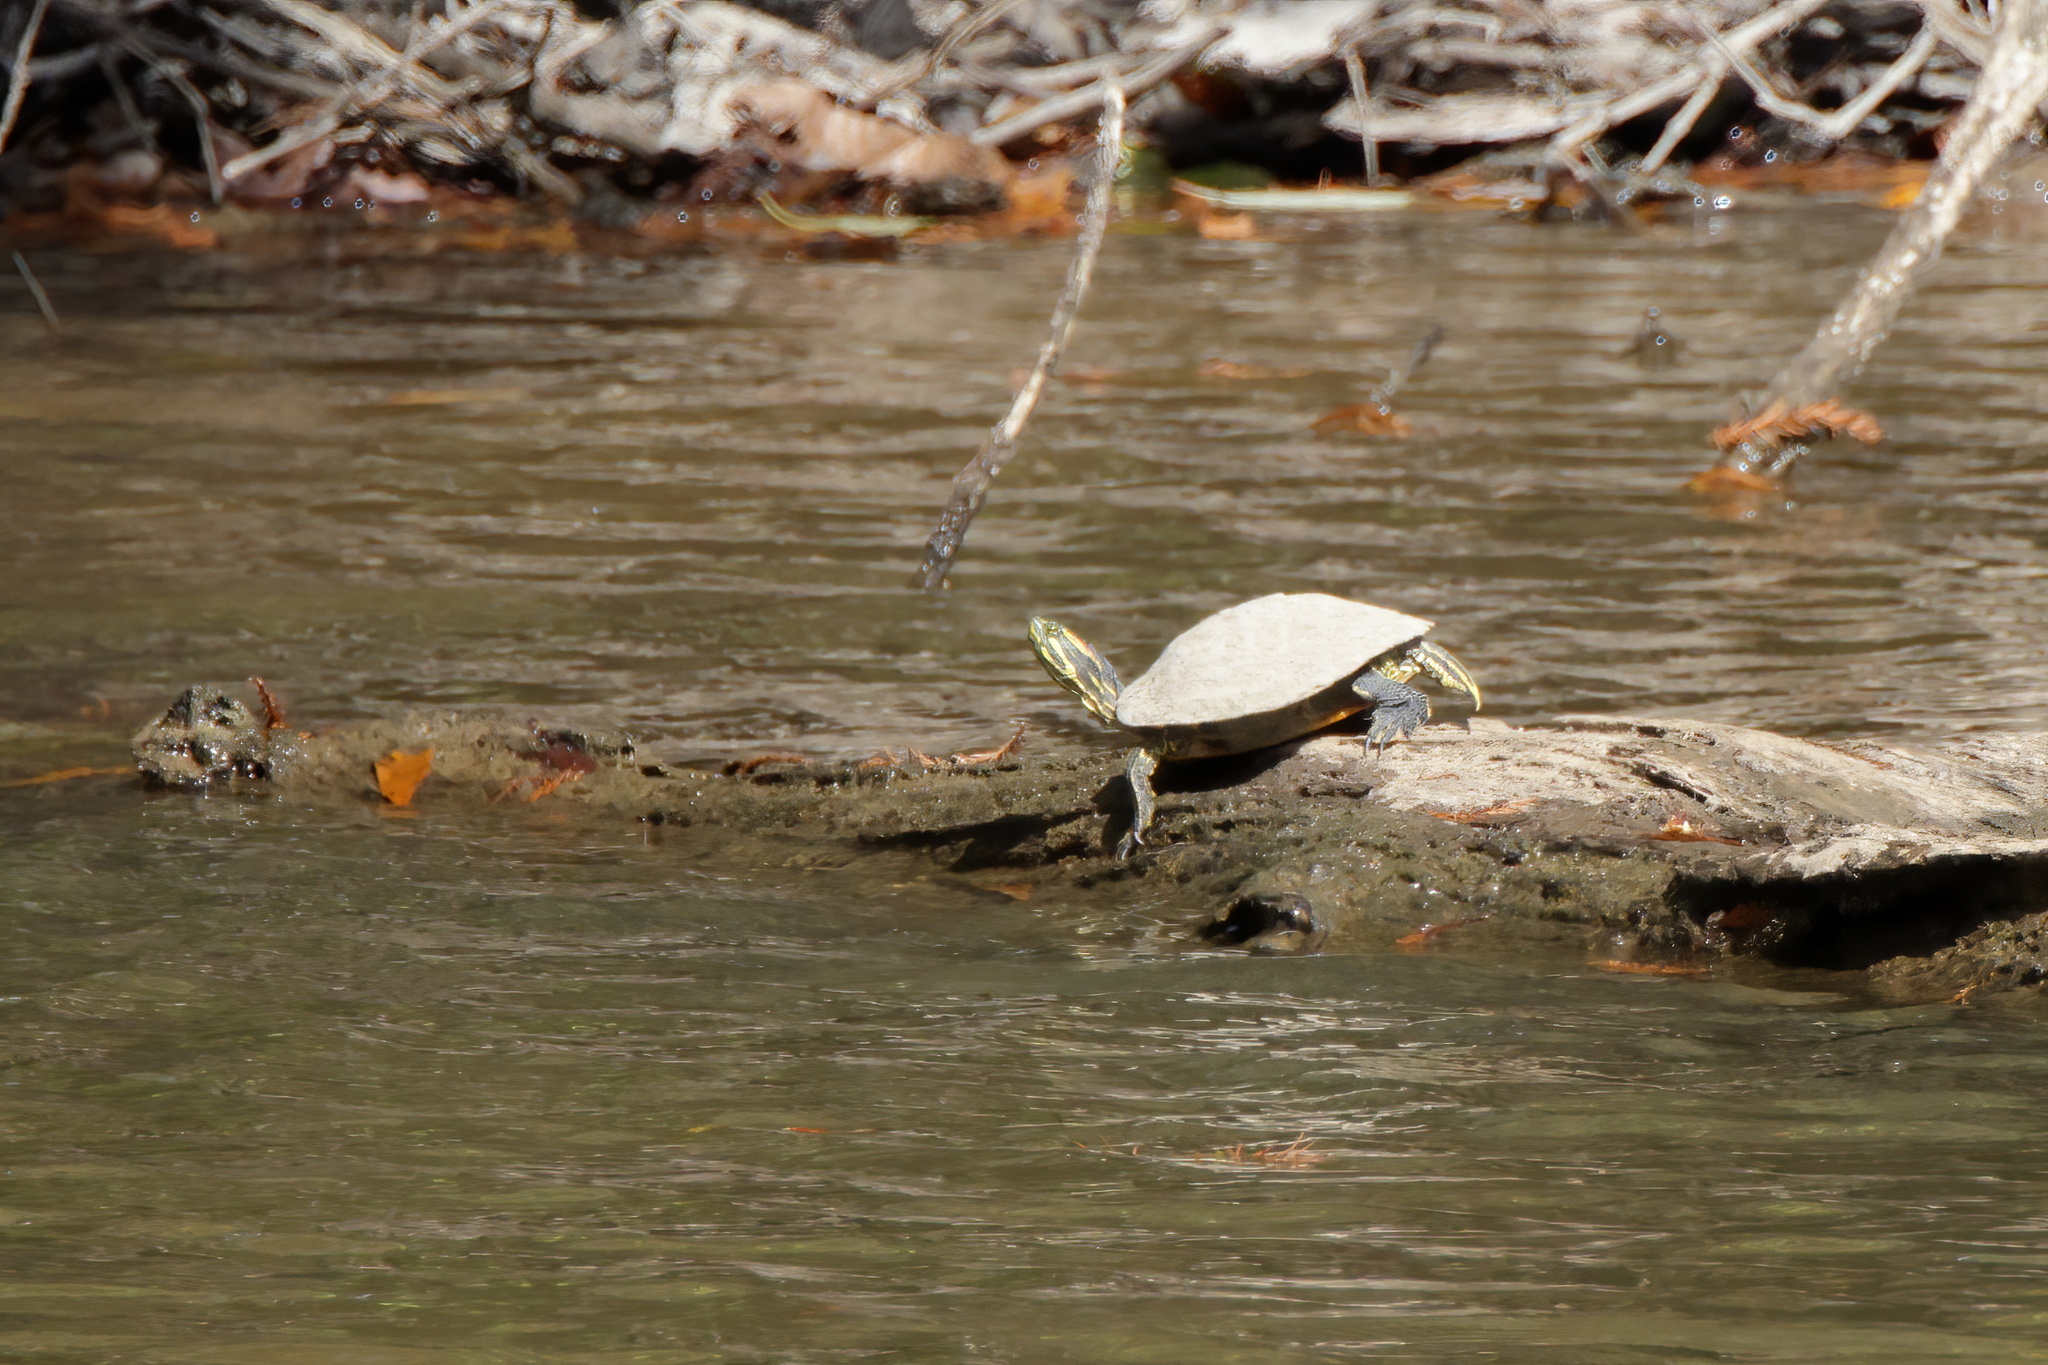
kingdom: Animalia
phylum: Chordata
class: Testudines
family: Emydidae
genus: Trachemys
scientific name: Trachemys scripta
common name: Slider
